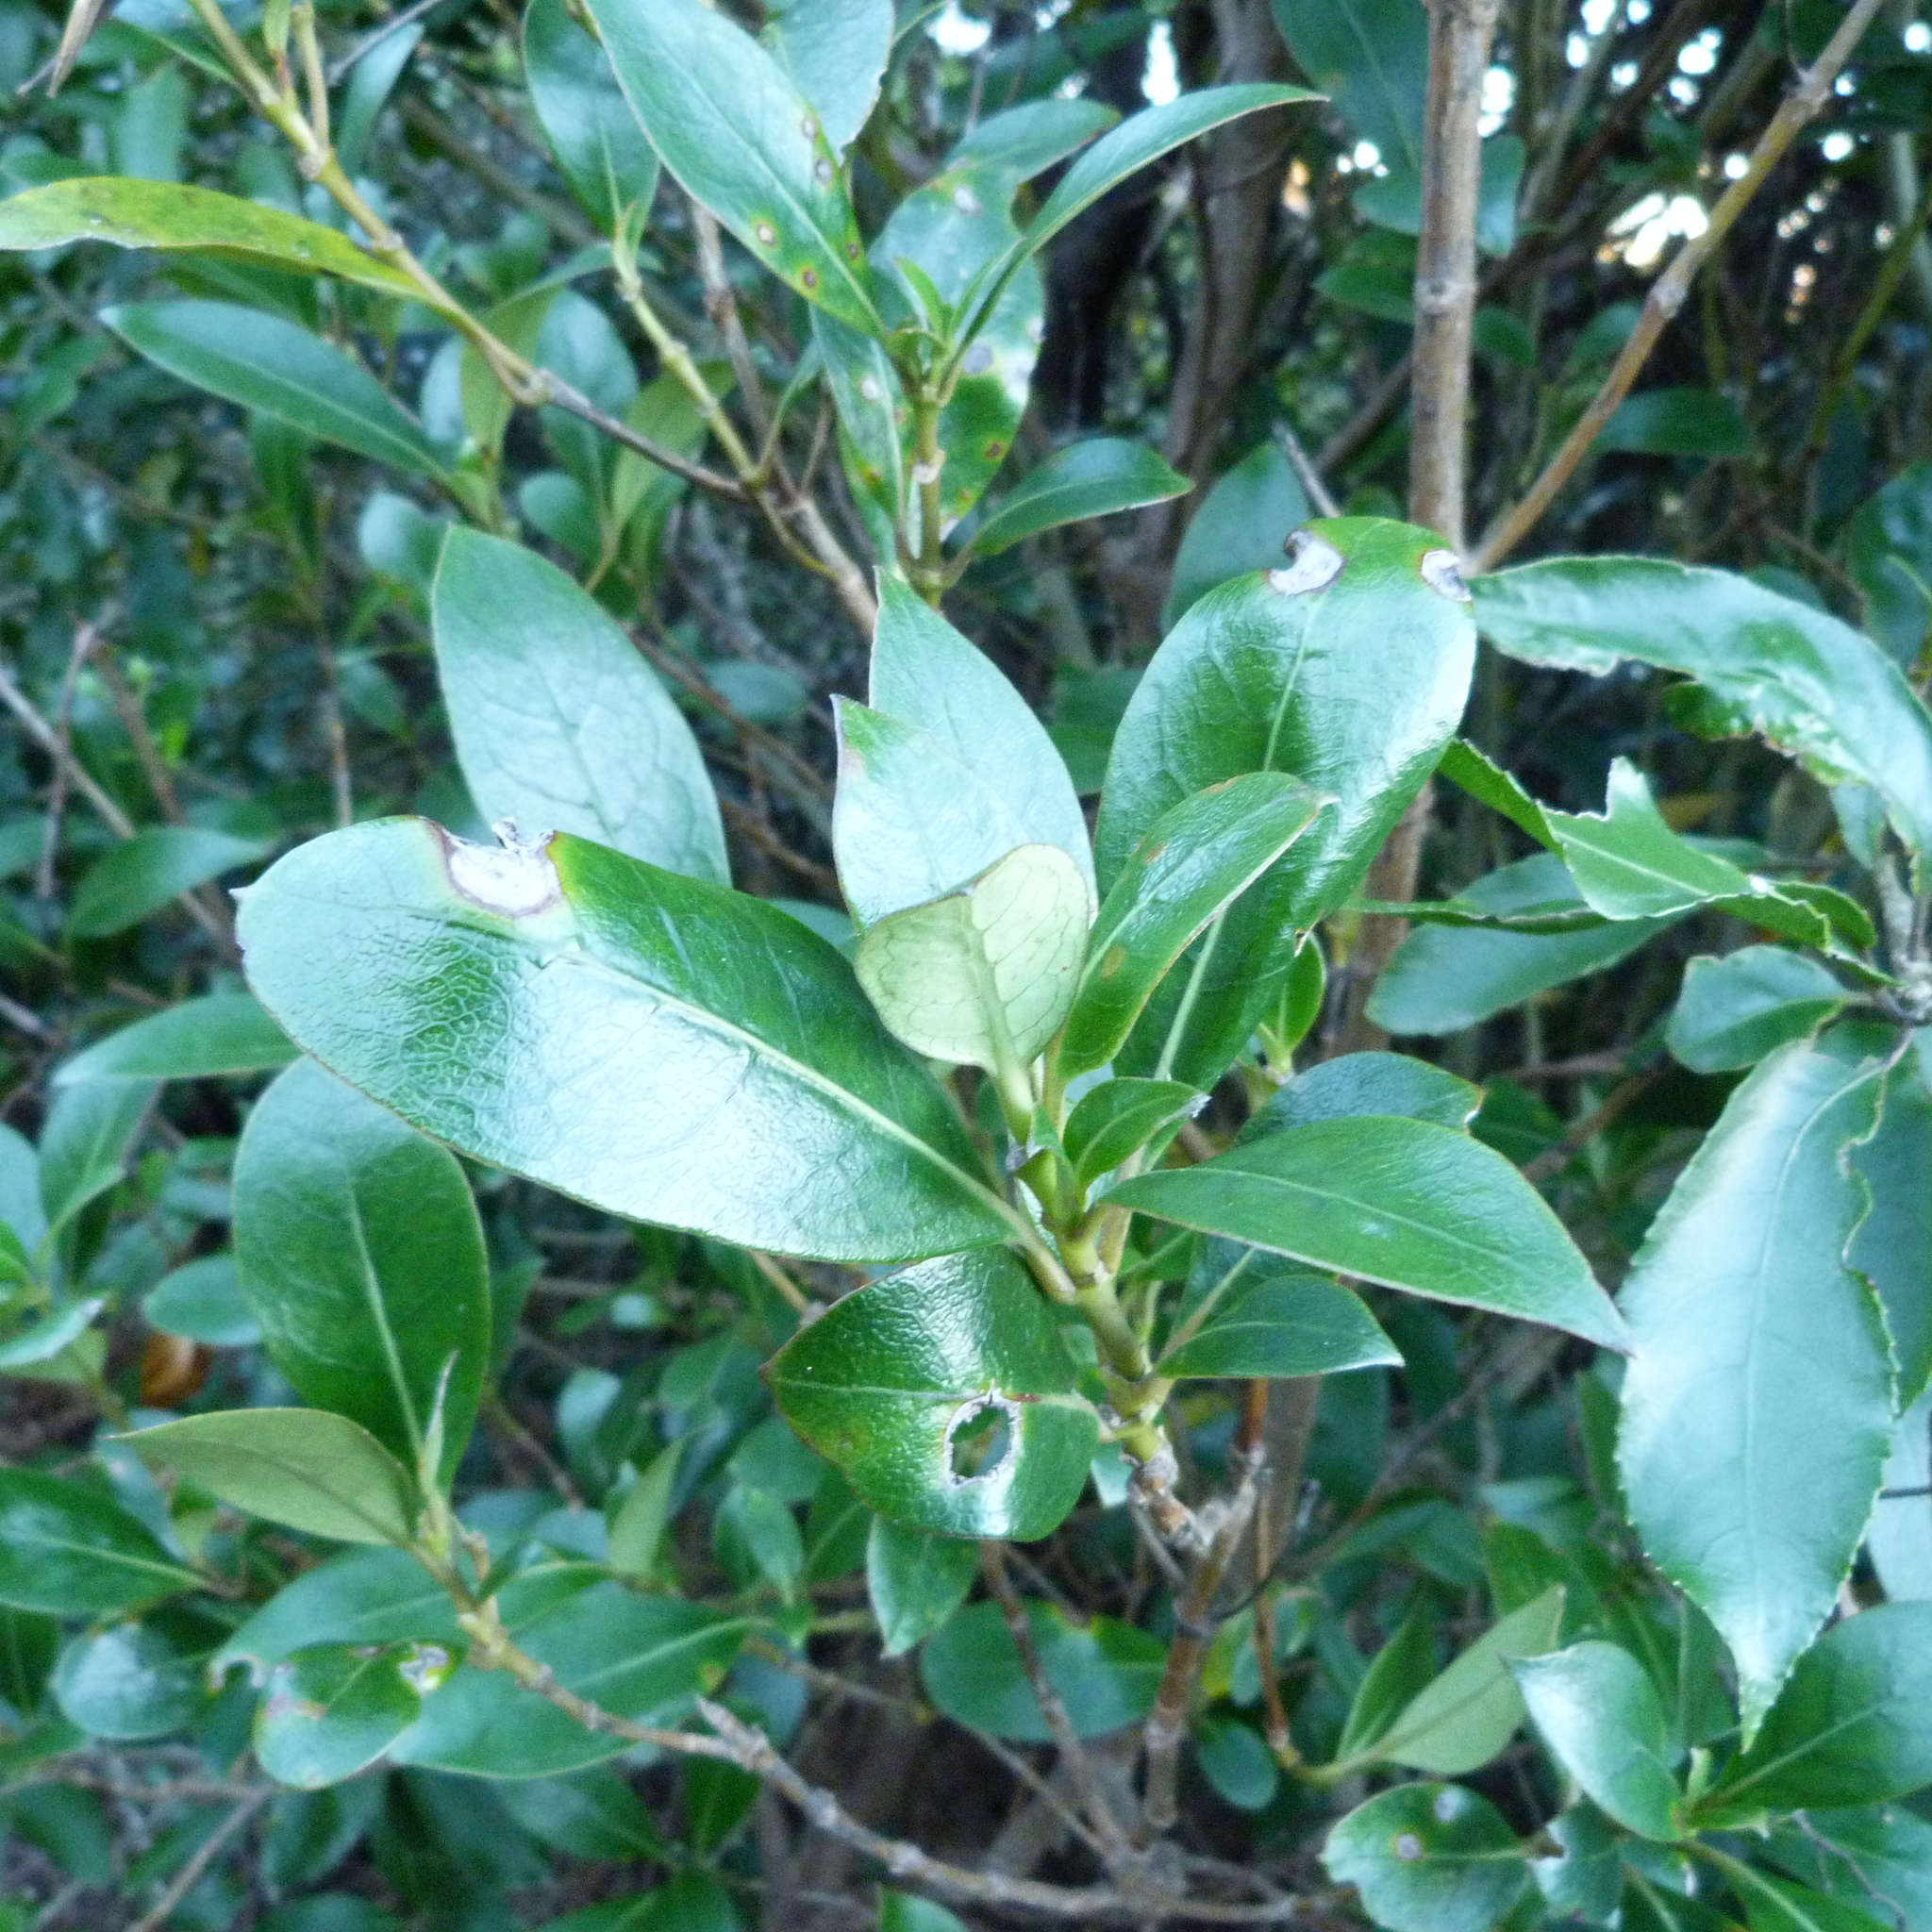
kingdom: Plantae
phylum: Tracheophyta
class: Magnoliopsida
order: Gentianales
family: Rubiaceae
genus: Coprosma
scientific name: Coprosma lucida
